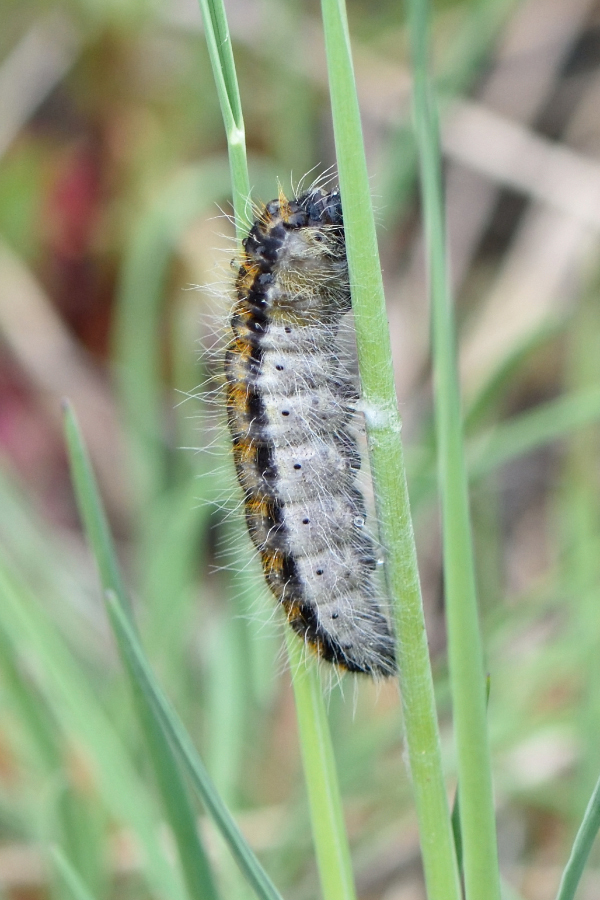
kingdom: Animalia
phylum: Arthropoda
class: Insecta
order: Lepidoptera
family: Pieridae
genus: Aporia
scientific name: Aporia crataegi
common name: Black-veined white
